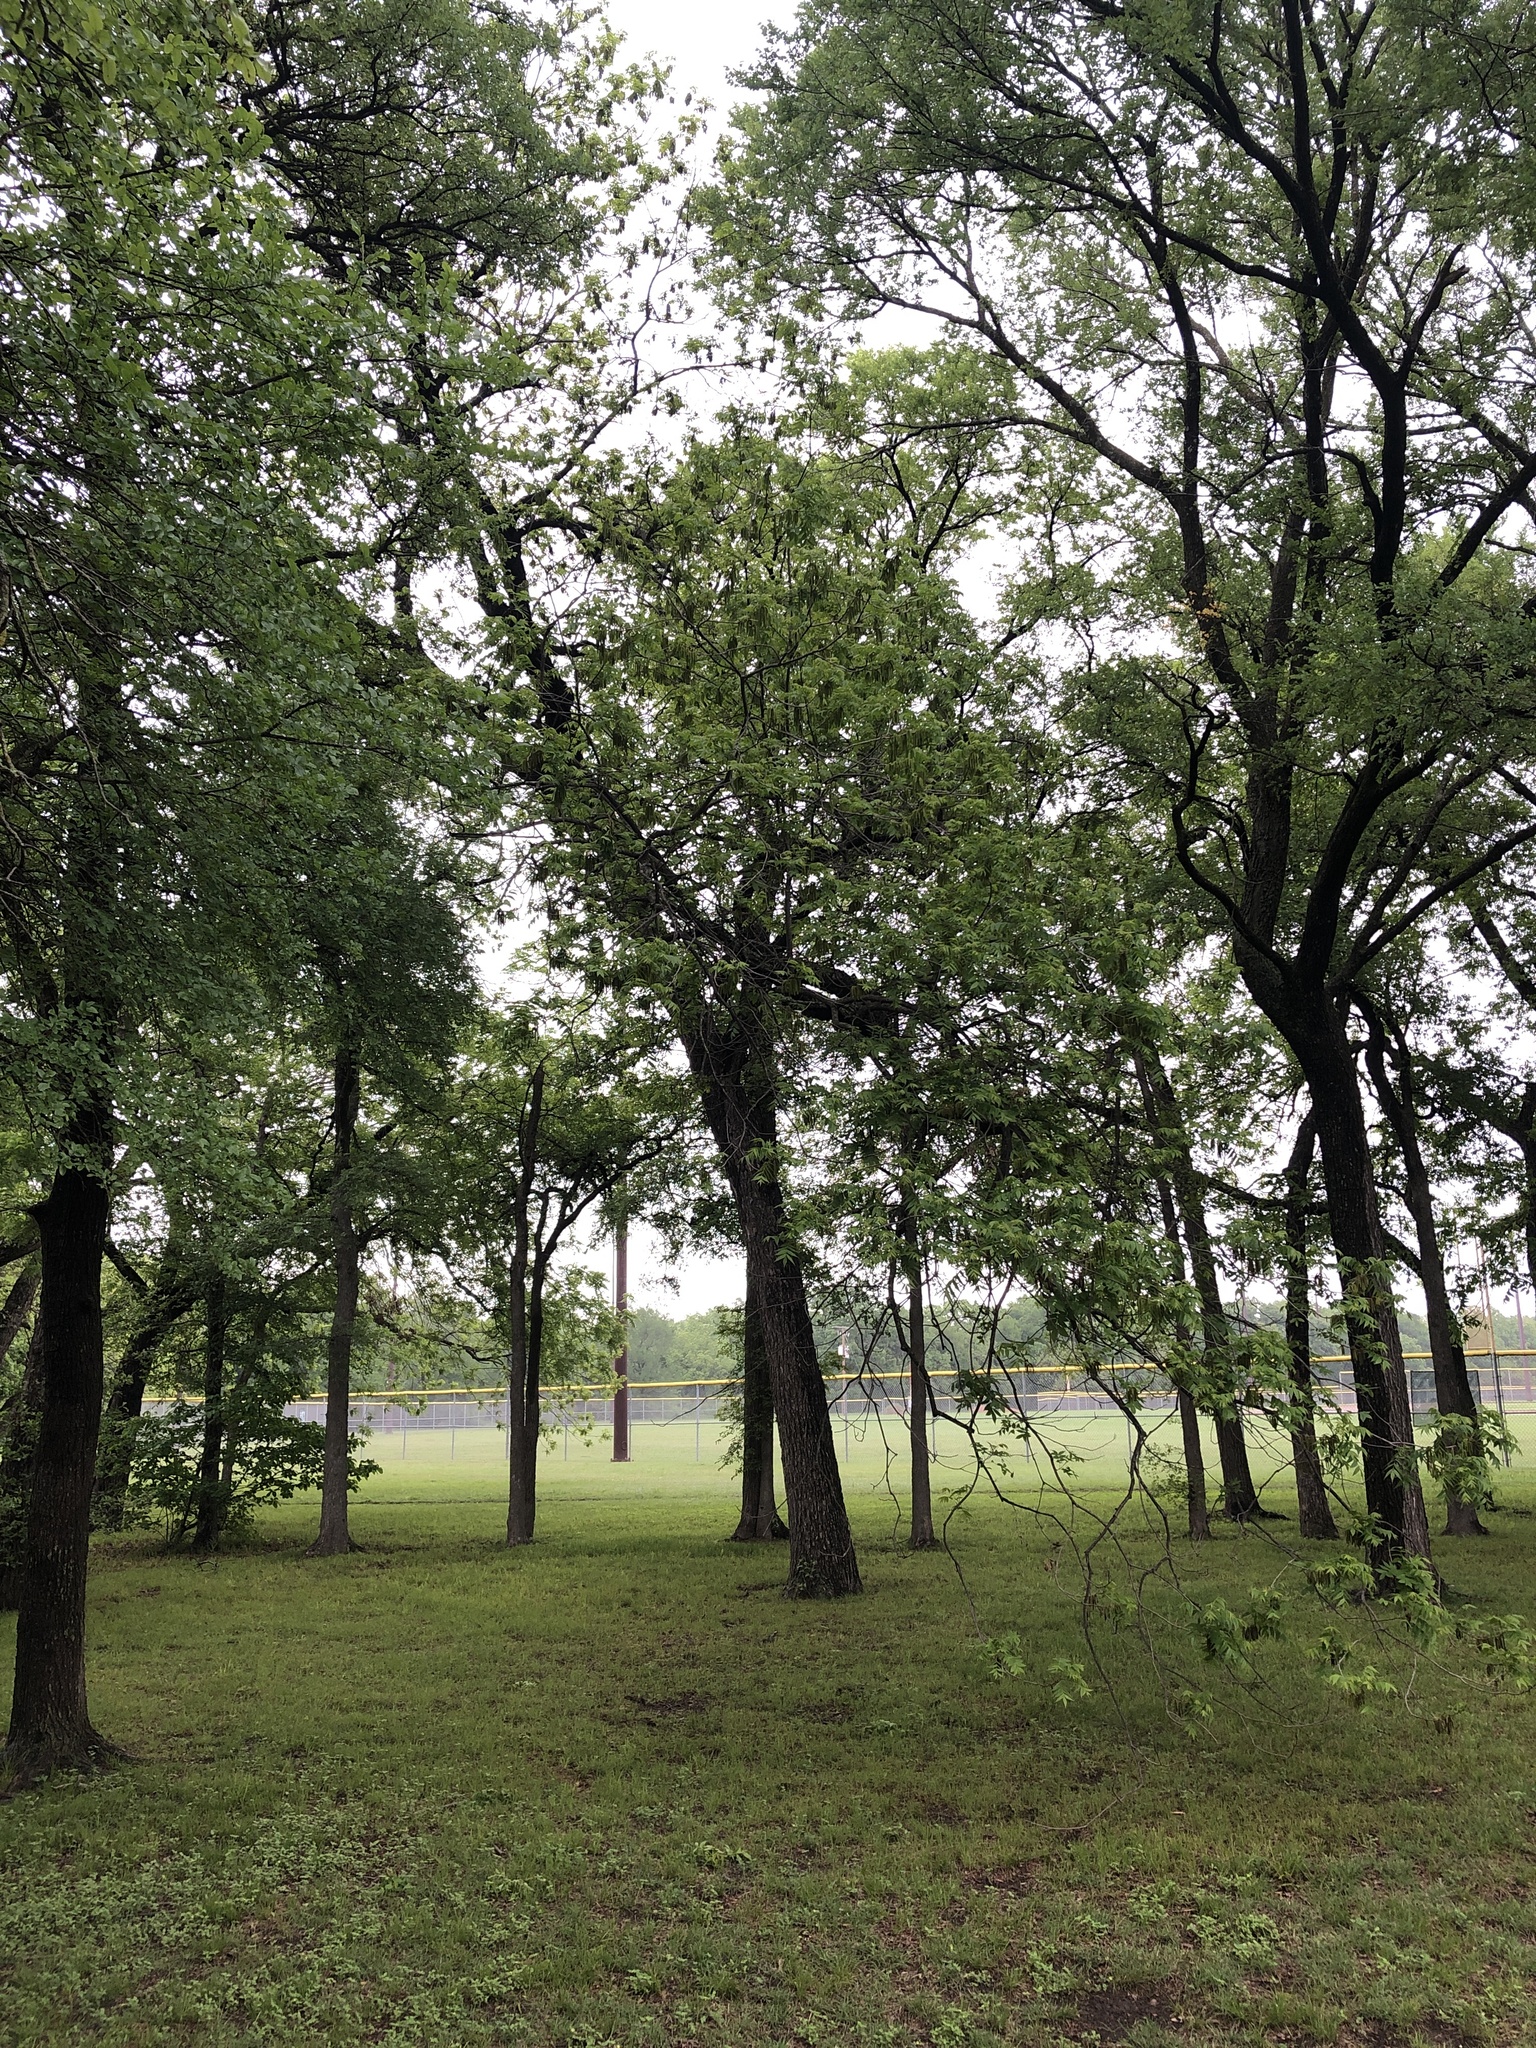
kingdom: Plantae
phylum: Tracheophyta
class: Magnoliopsida
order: Fagales
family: Juglandaceae
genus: Carya
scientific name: Carya illinoinensis
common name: Pecan
